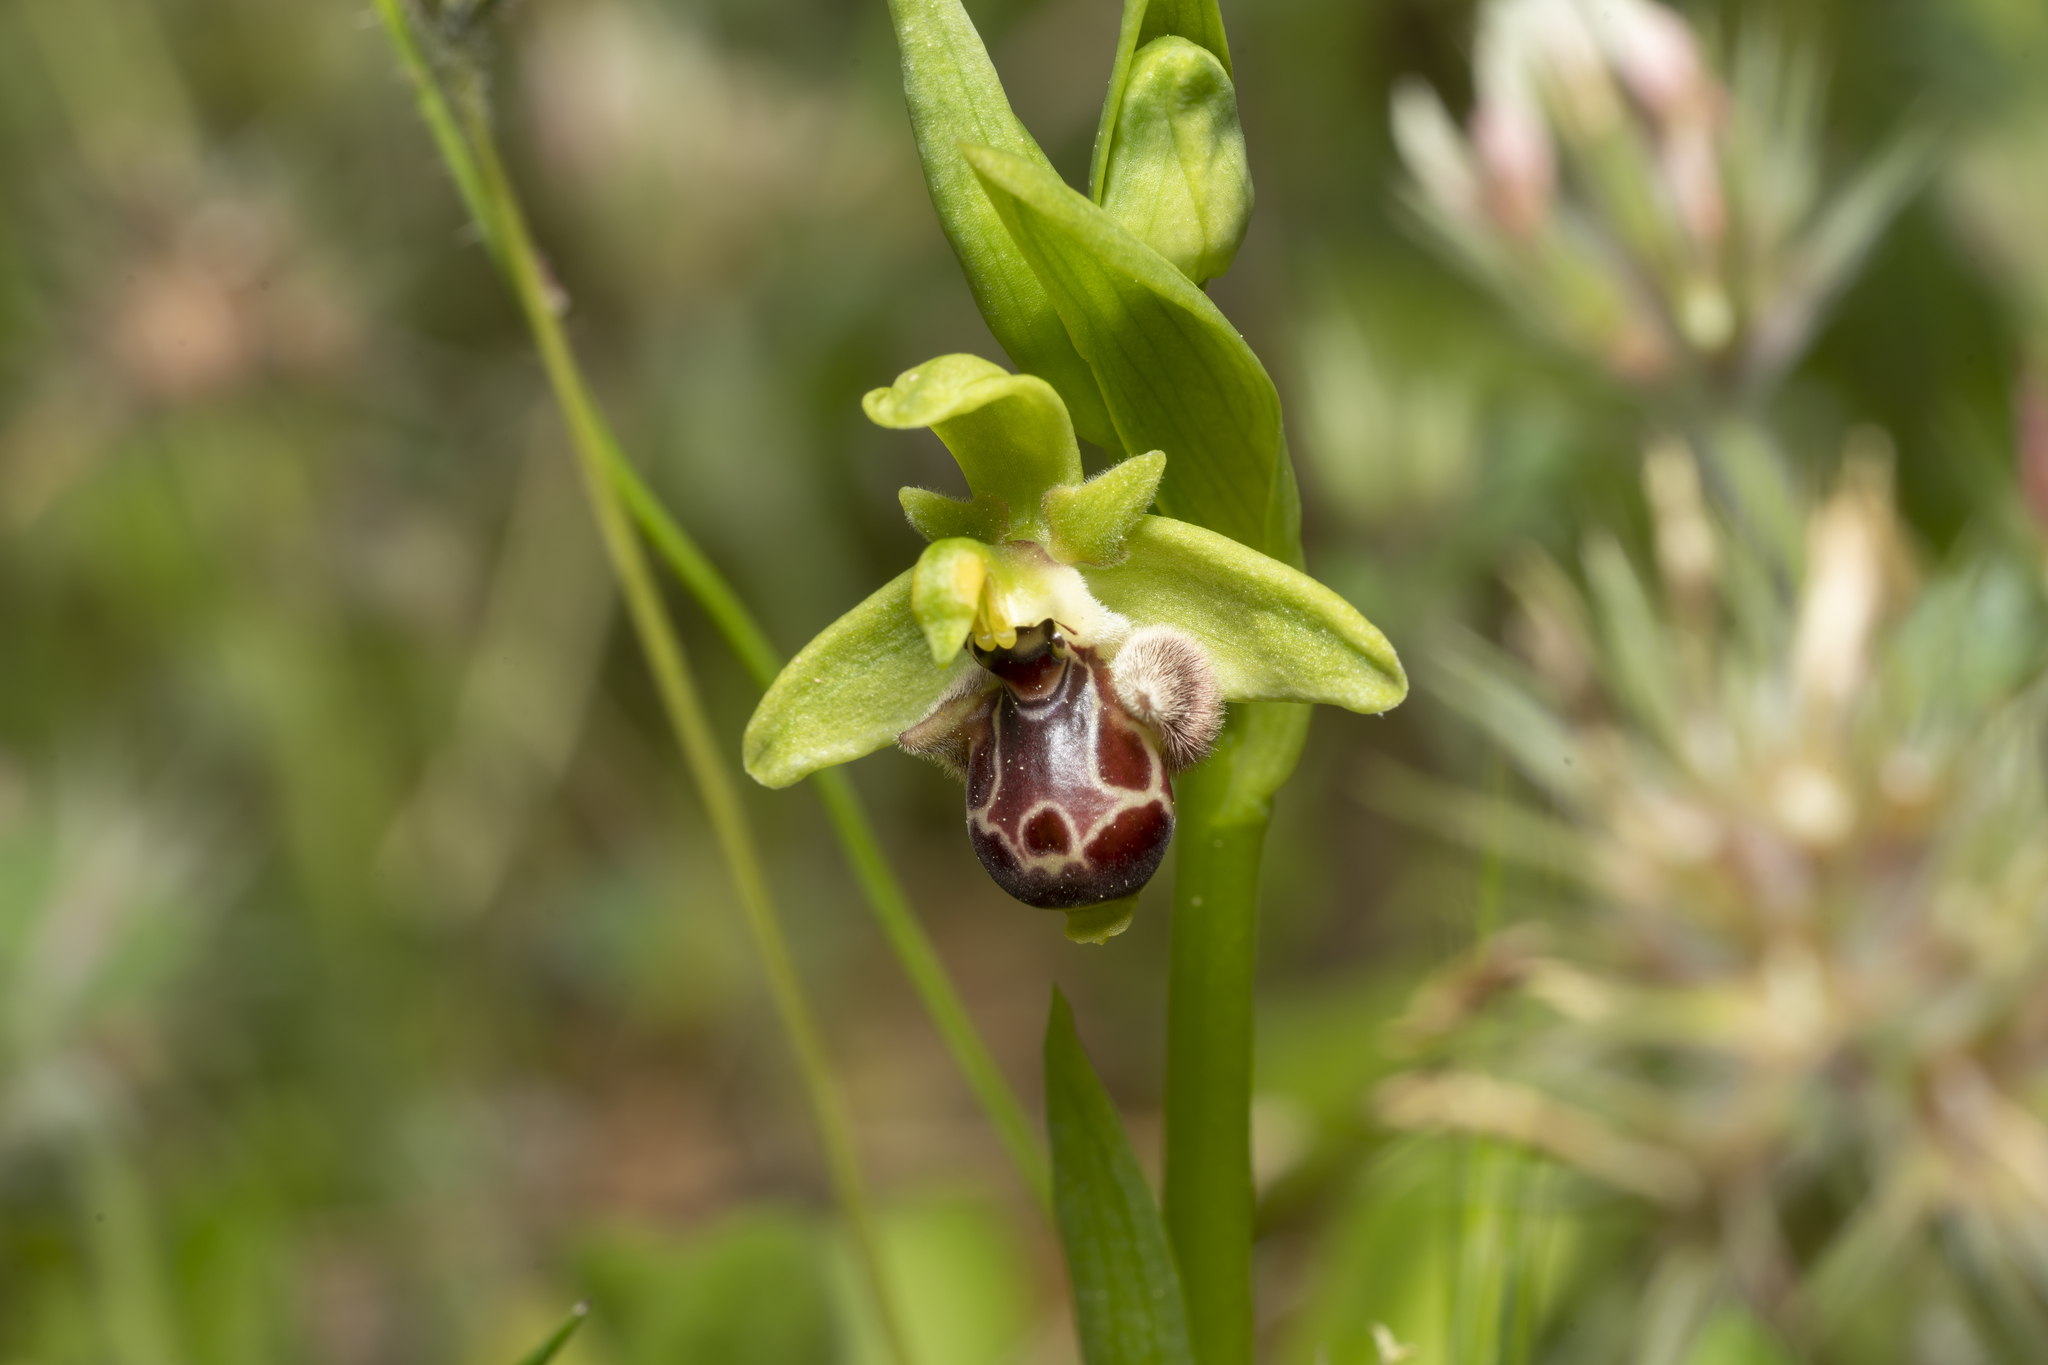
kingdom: Plantae
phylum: Tracheophyta
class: Liliopsida
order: Asparagales
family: Orchidaceae
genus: Ophrys
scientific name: Ophrys scolopax
